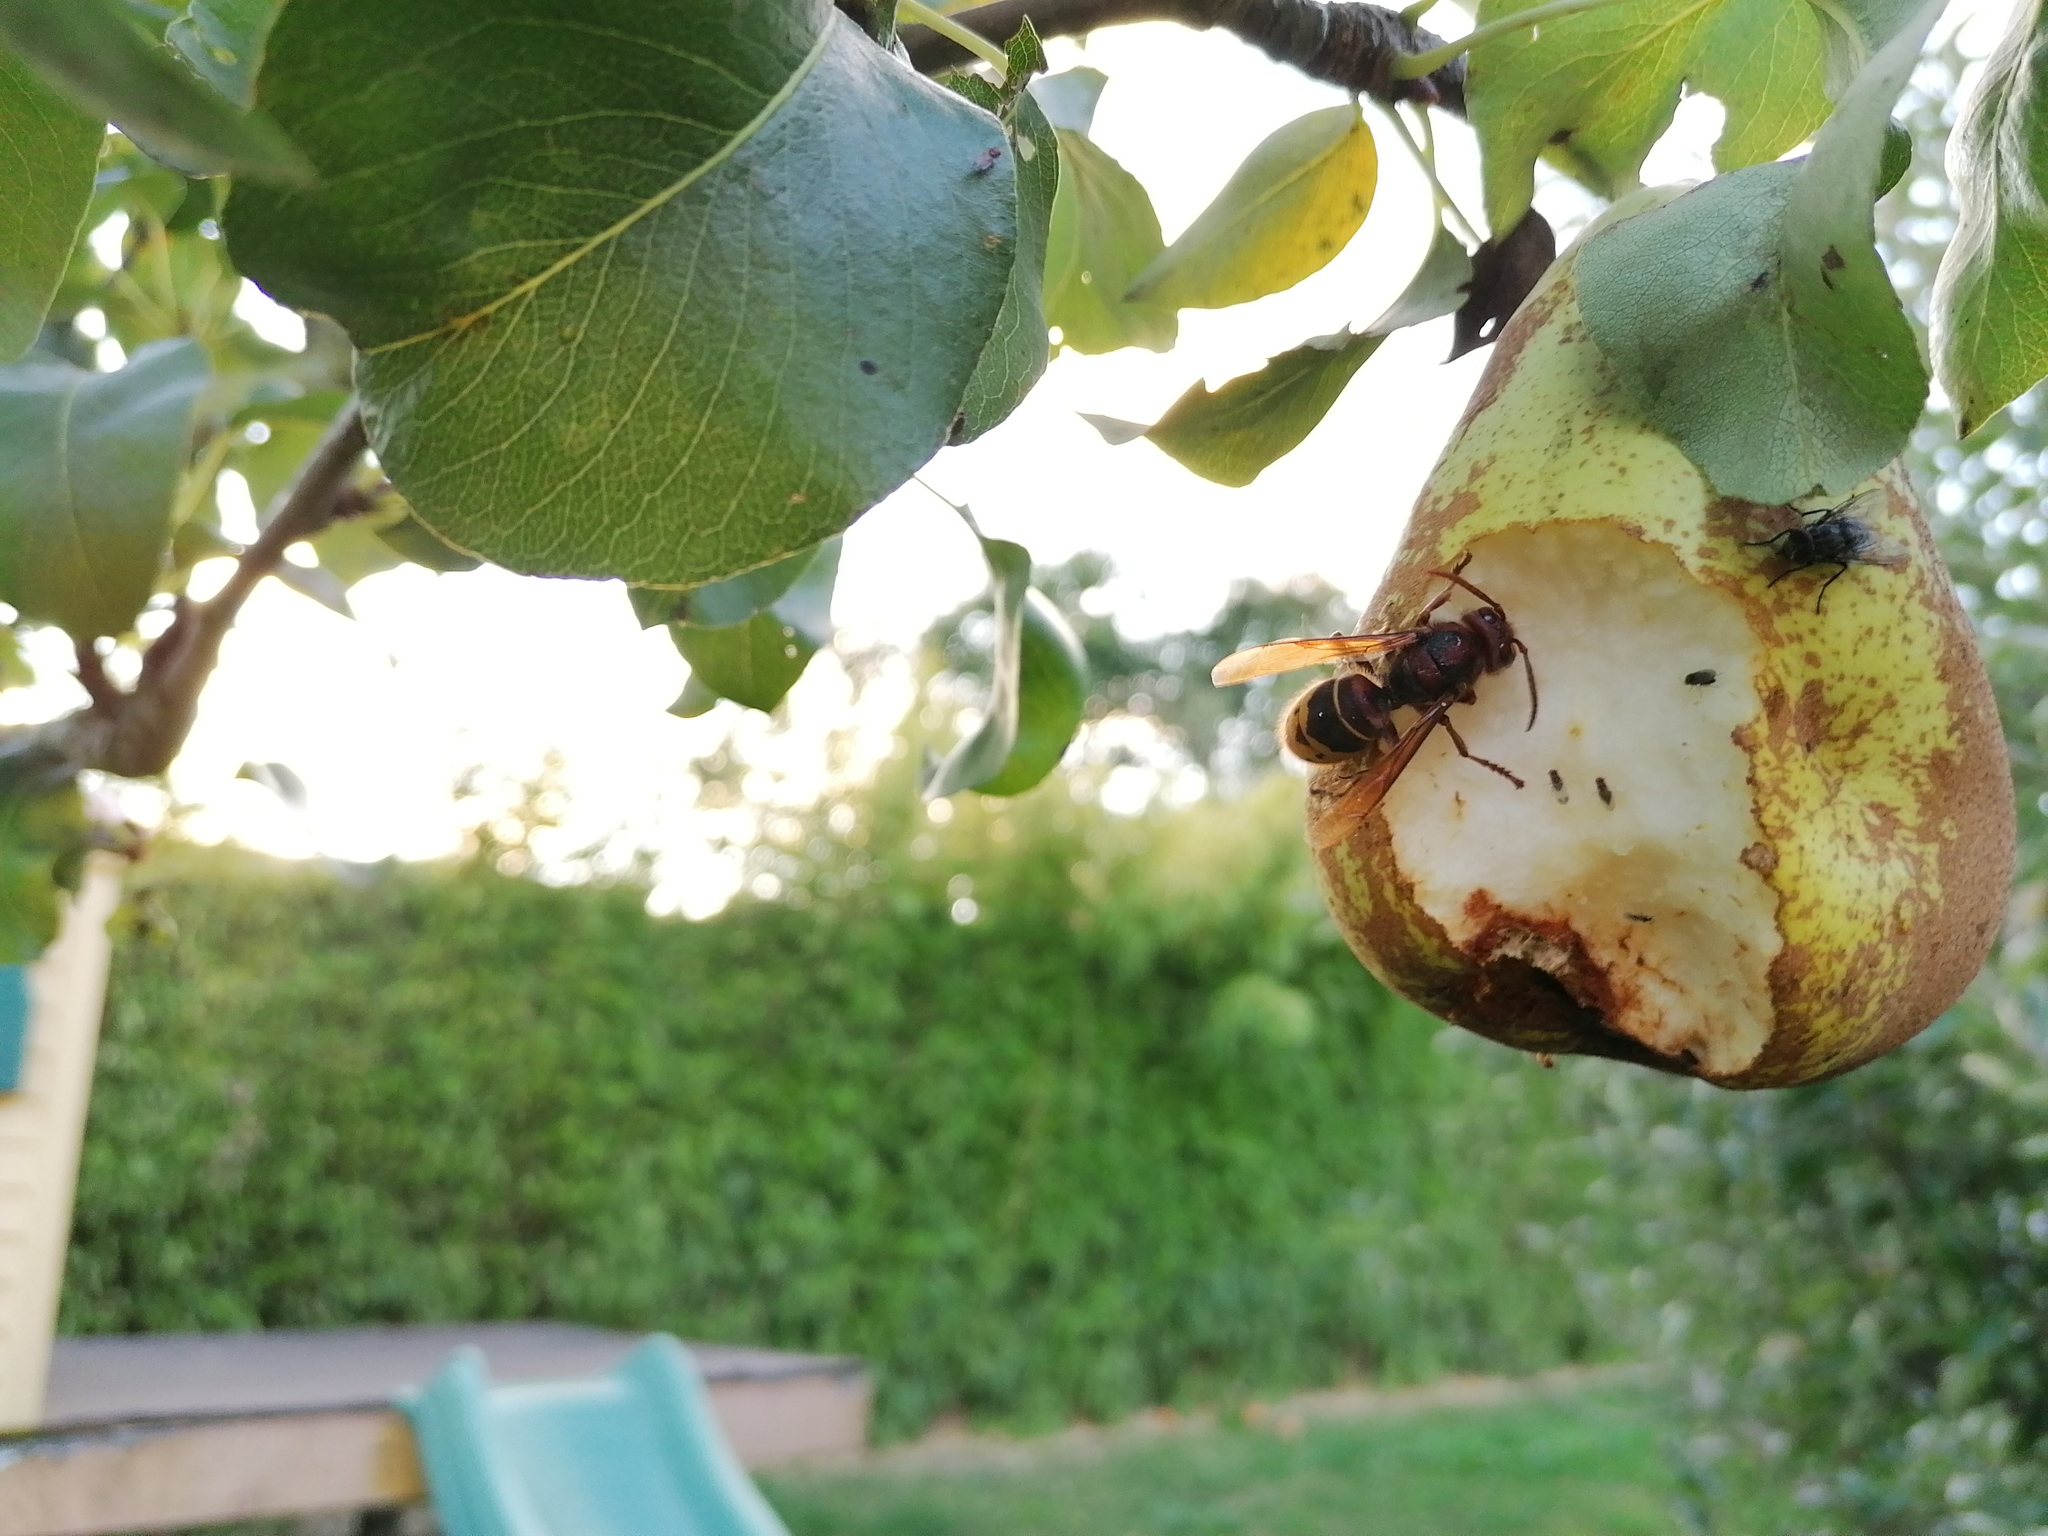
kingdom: Animalia
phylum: Arthropoda
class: Insecta
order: Hymenoptera
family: Vespidae
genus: Vespa
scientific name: Vespa crabro
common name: Hornet
